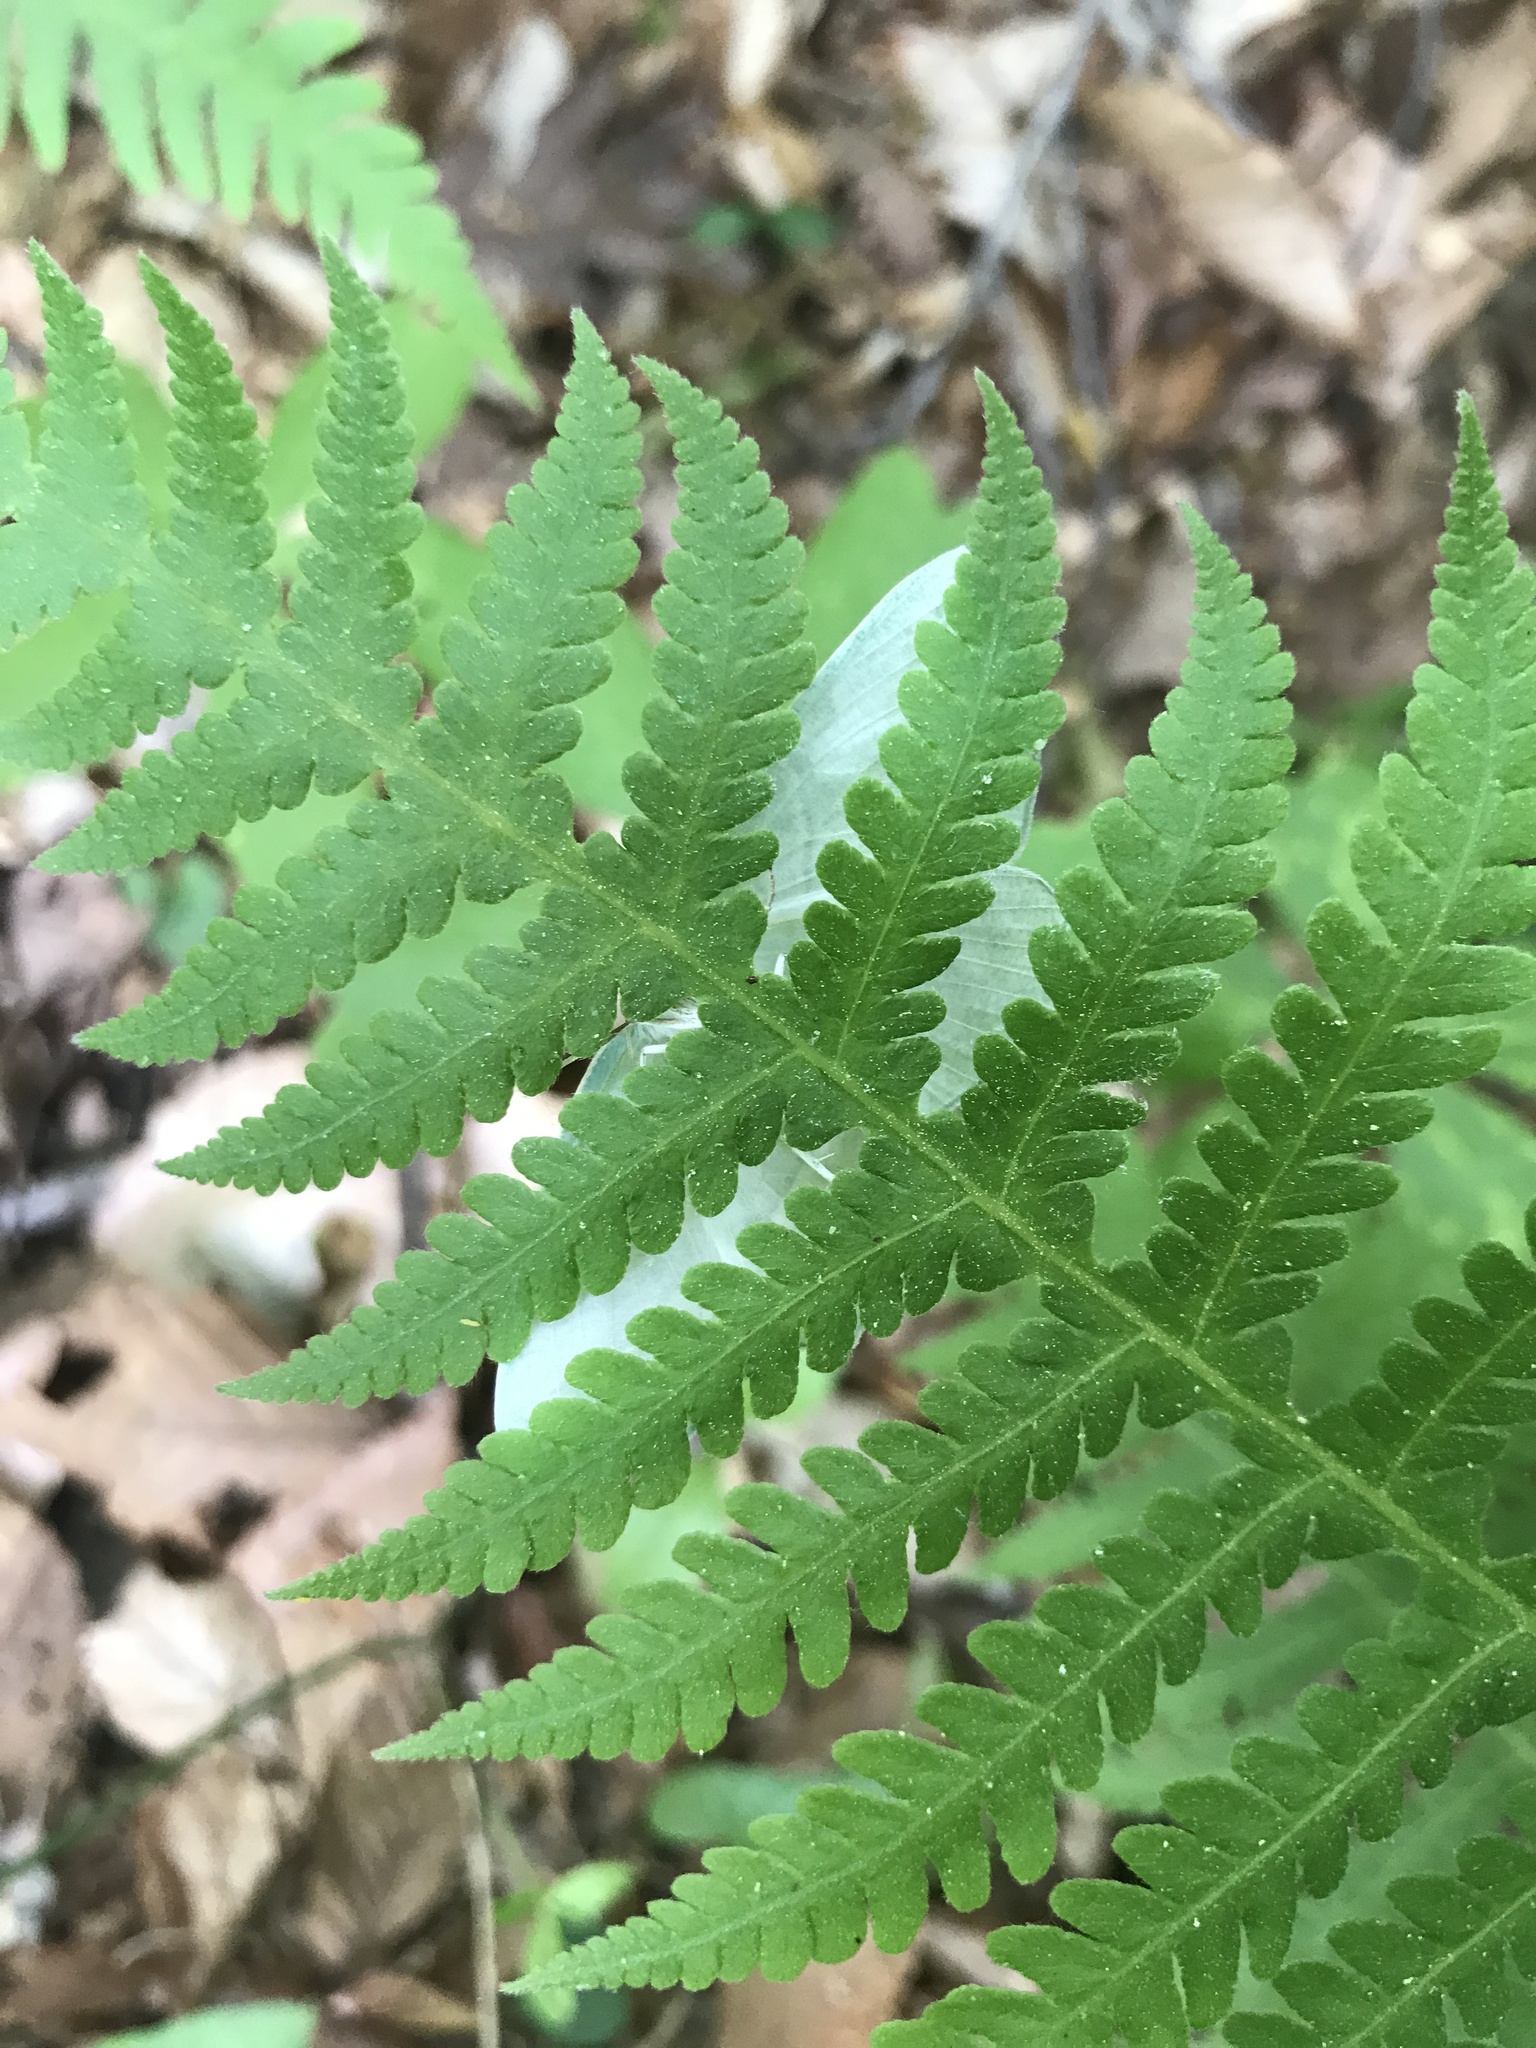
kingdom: Animalia
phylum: Arthropoda
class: Insecta
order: Lepidoptera
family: Geometridae
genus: Campaea
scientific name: Campaea perlata
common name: Fringed looper
